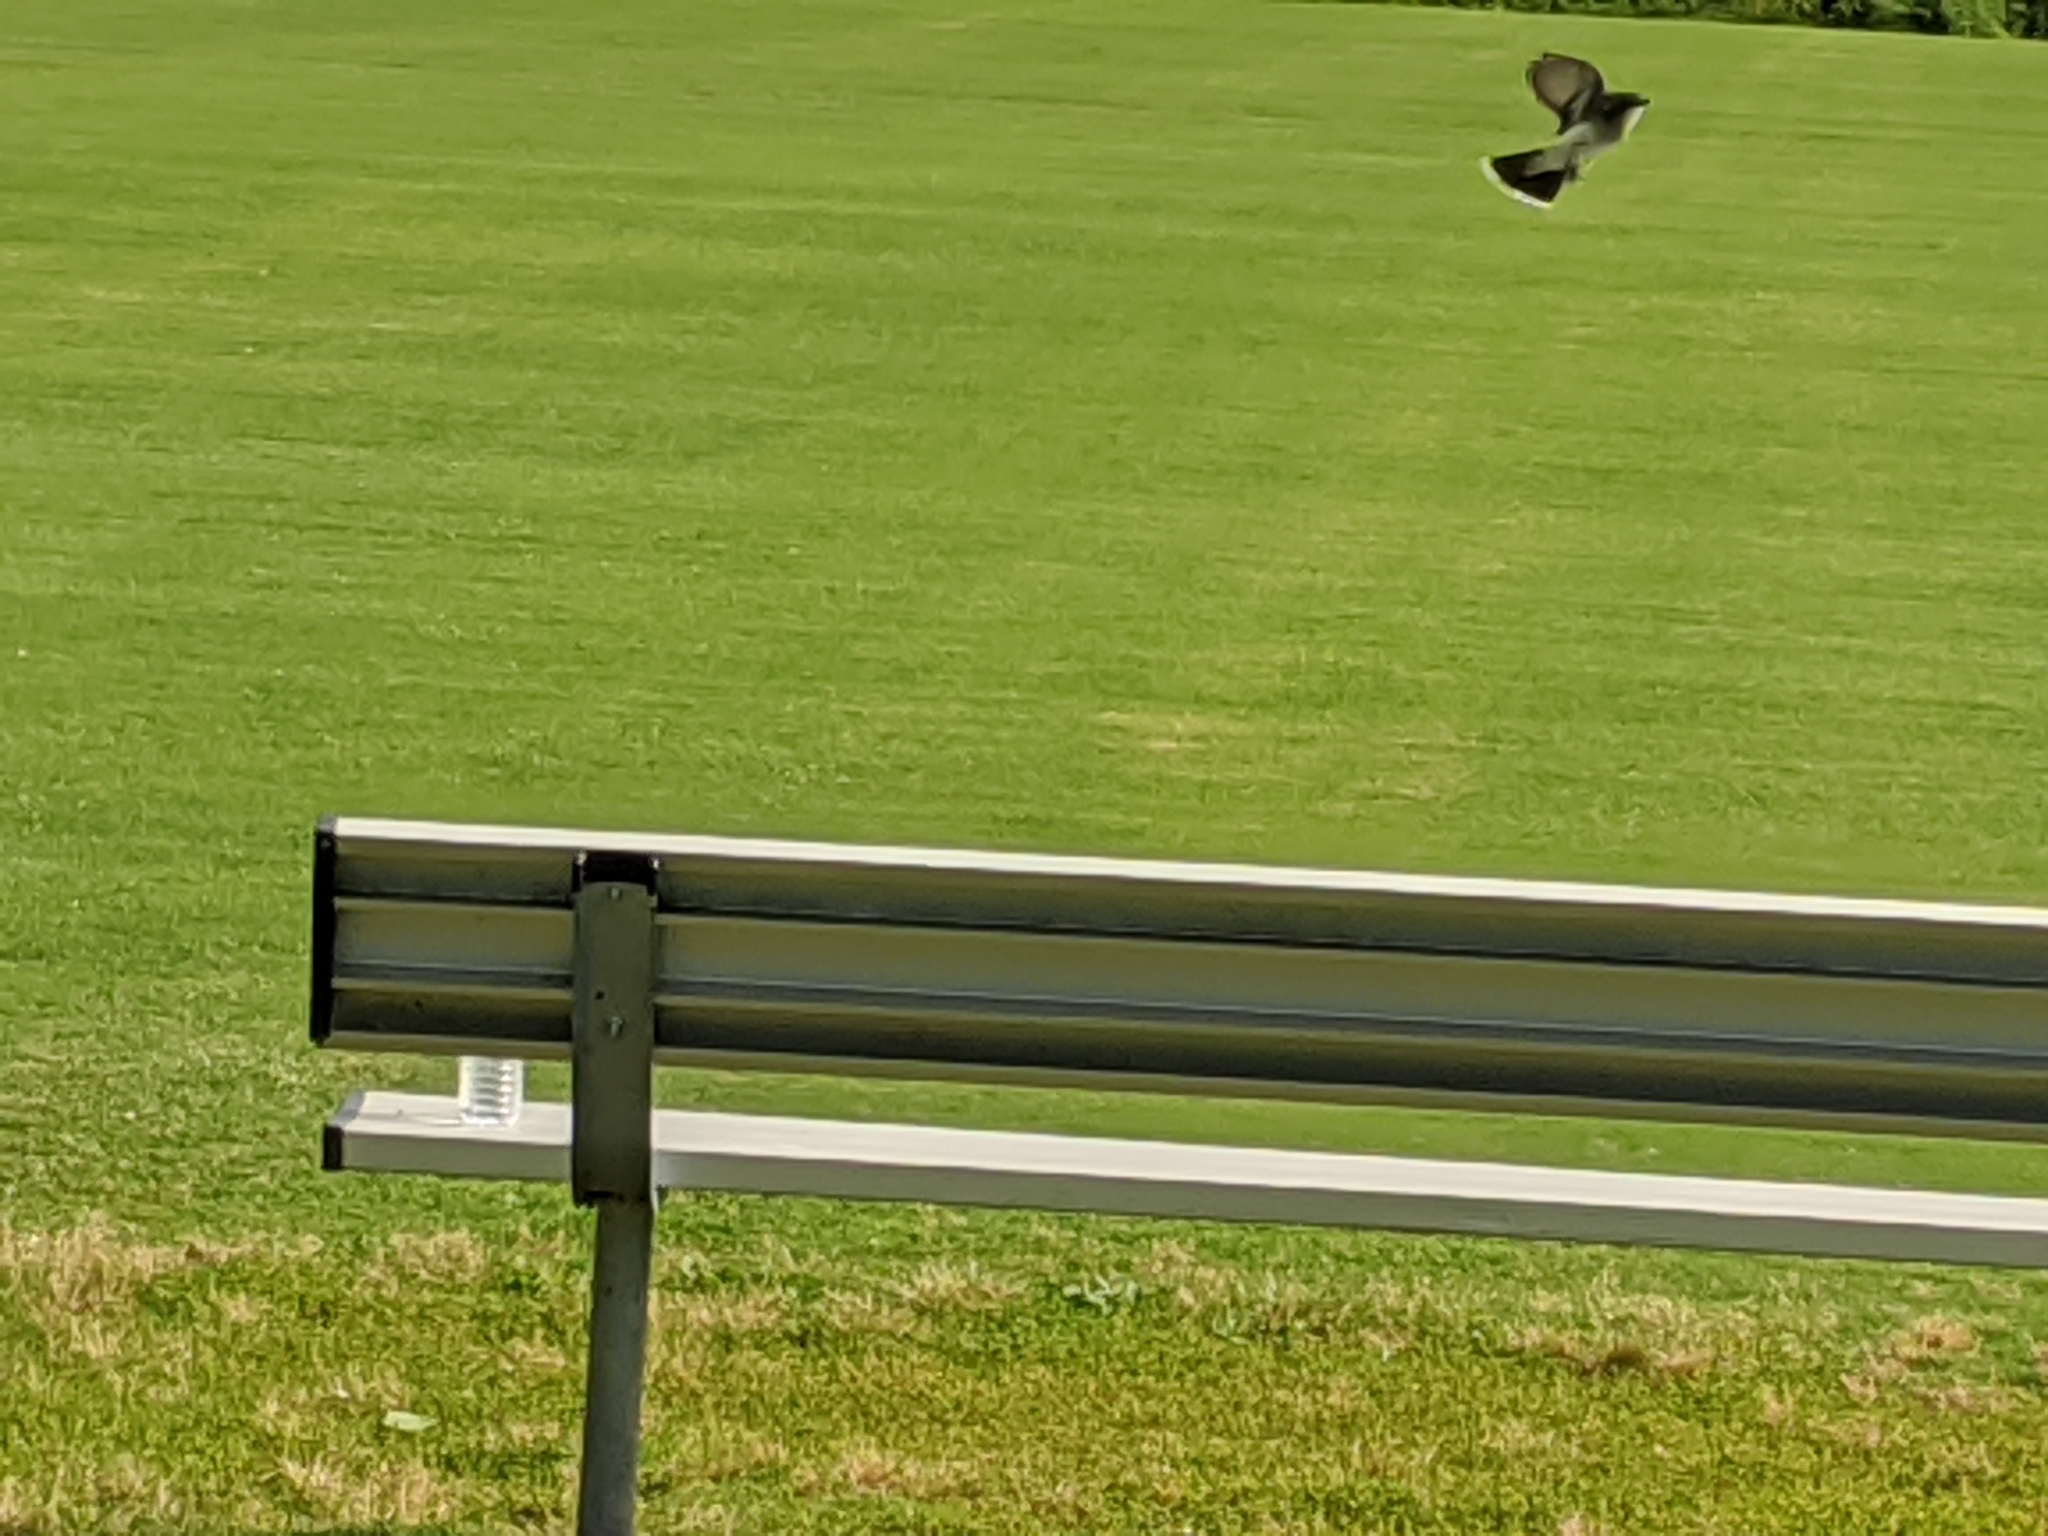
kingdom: Animalia
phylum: Chordata
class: Aves
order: Passeriformes
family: Tyrannidae
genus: Tyrannus
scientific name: Tyrannus tyrannus
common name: Eastern kingbird
